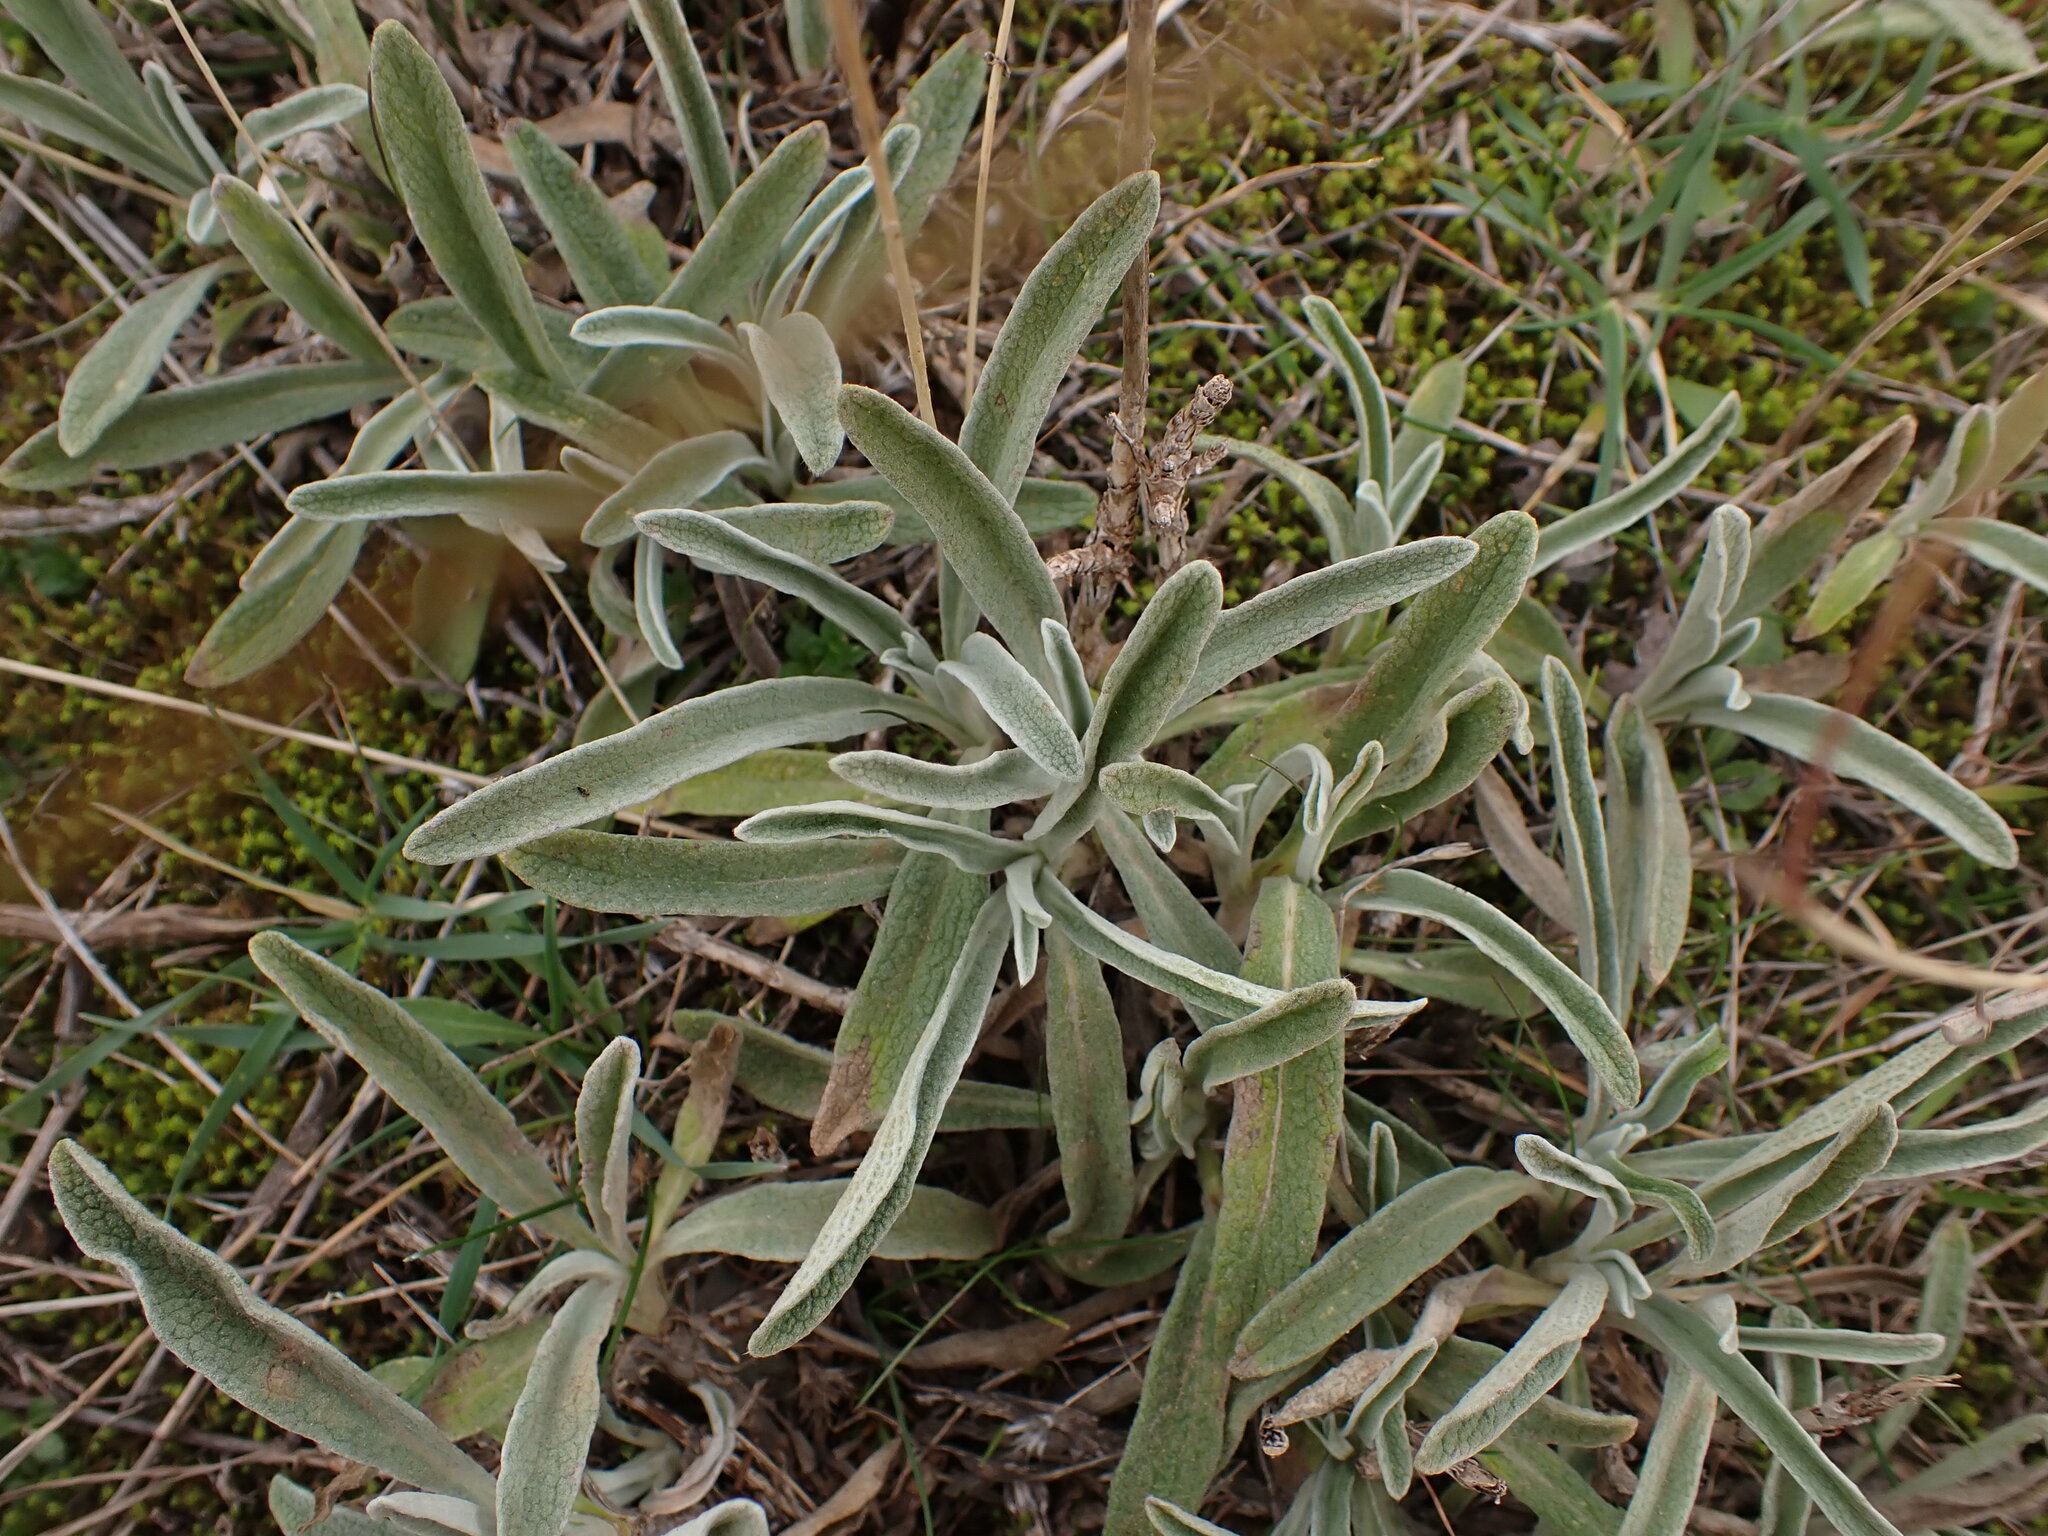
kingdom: Plantae
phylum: Tracheophyta
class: Magnoliopsida
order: Lamiales
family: Lamiaceae
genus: Phlomis
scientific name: Phlomis lychnitis
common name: Lampwickplant
